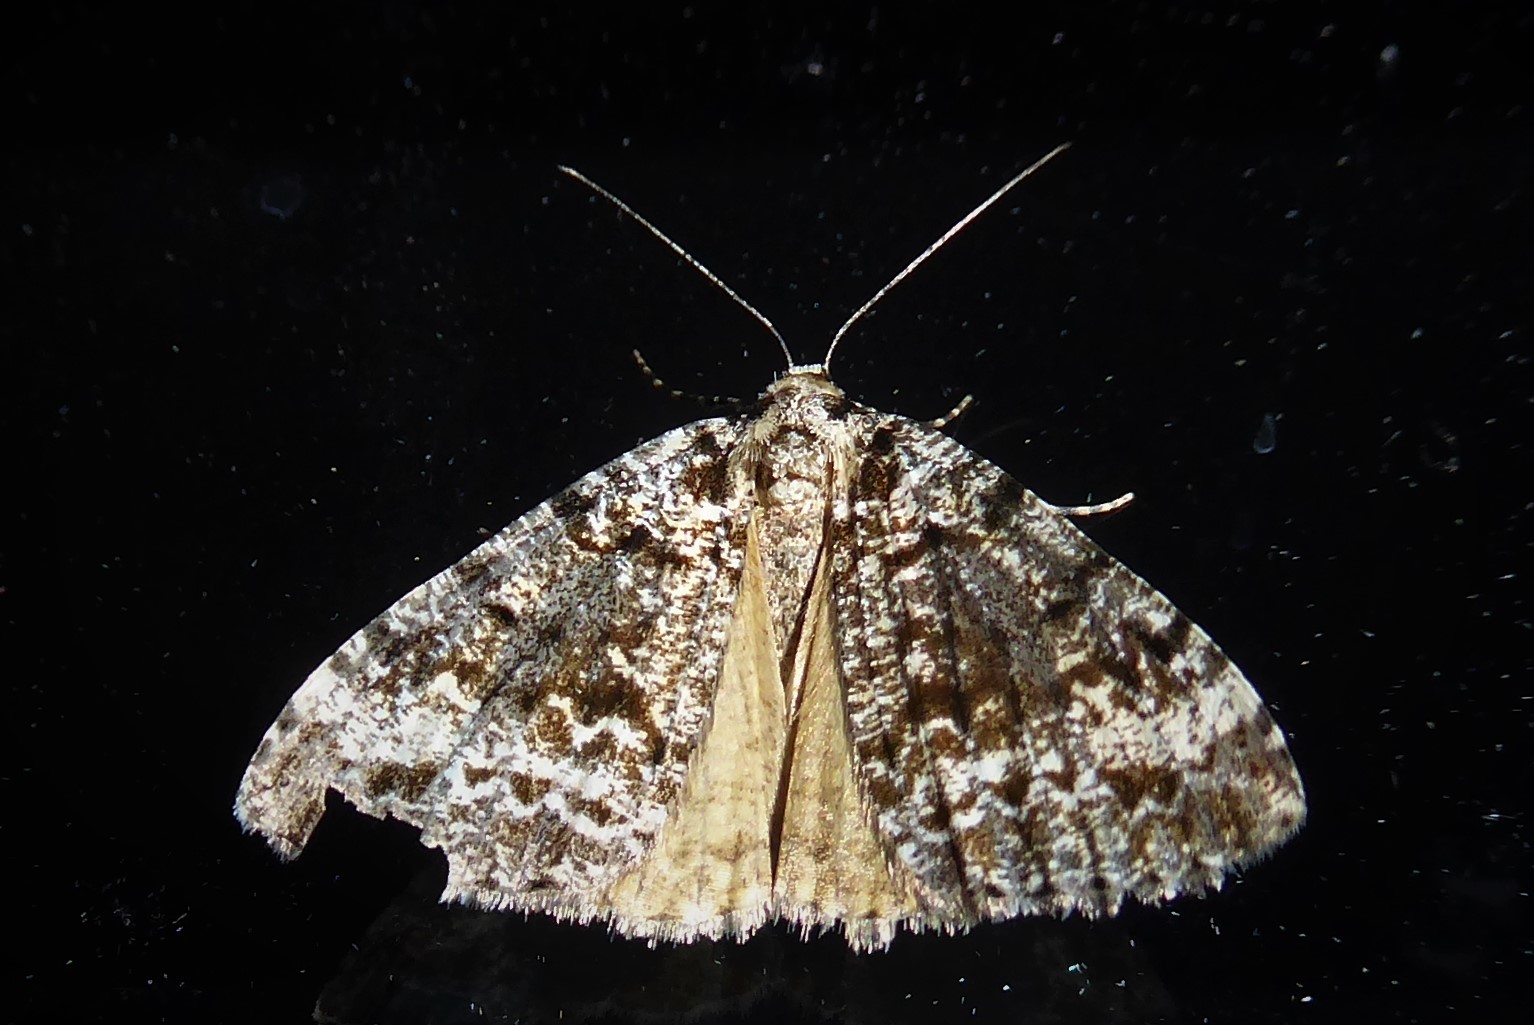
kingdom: Animalia
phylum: Arthropoda
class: Insecta
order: Lepidoptera
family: Geometridae
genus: Pseudocoremia
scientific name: Pseudocoremia leucelaea
